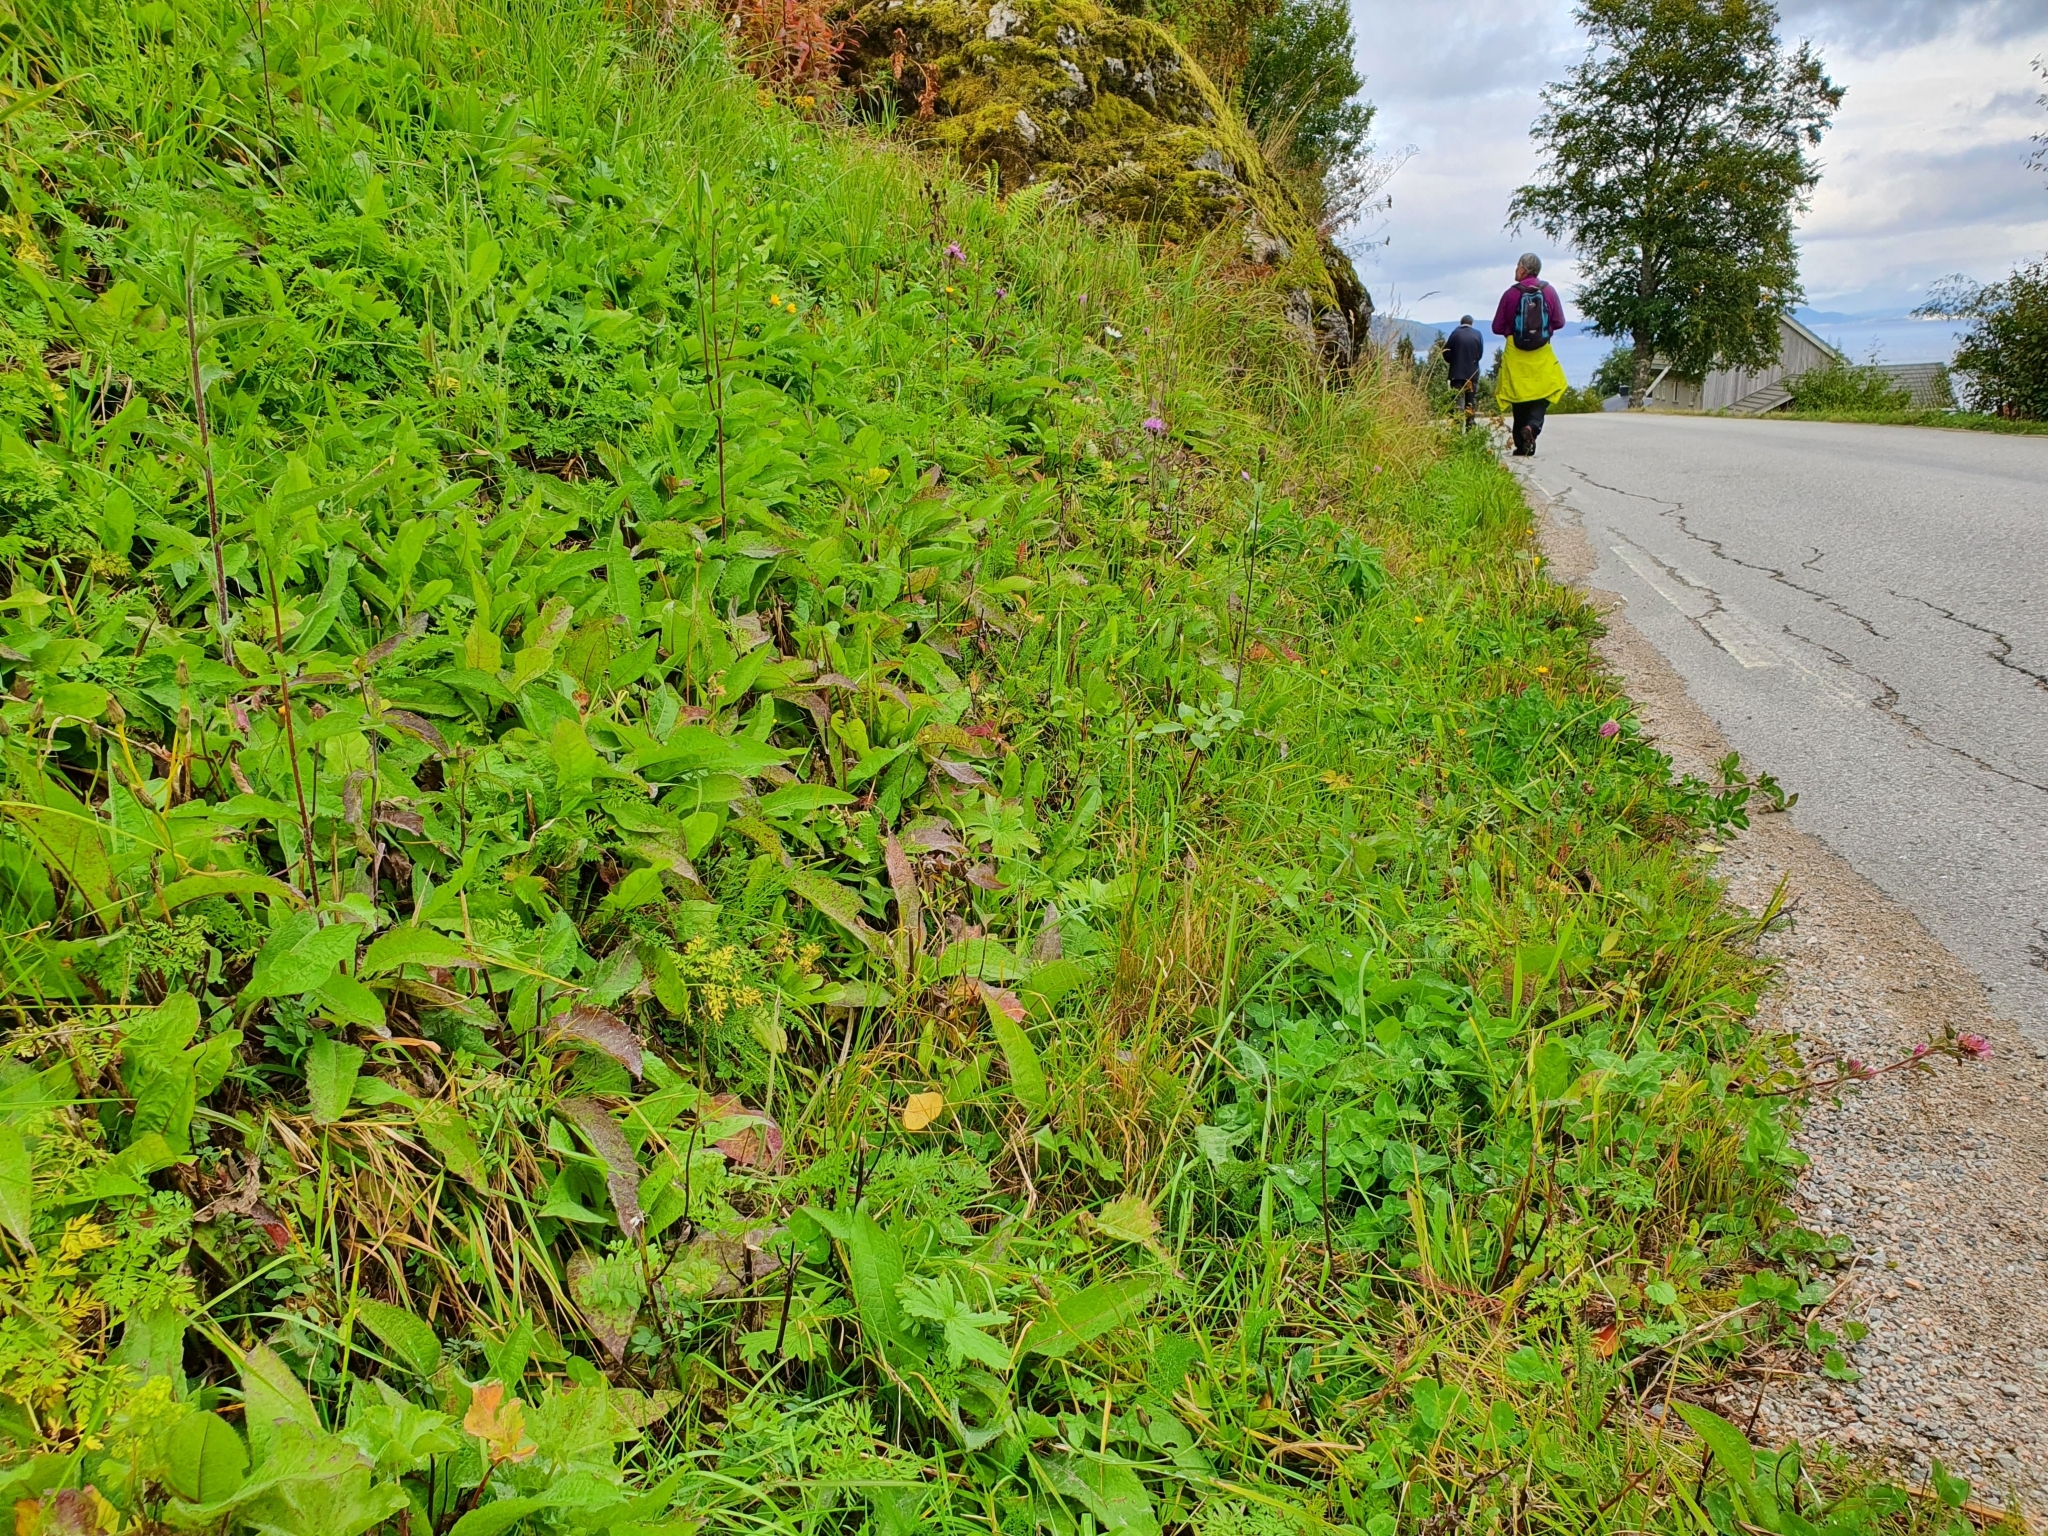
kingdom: Plantae
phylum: Tracheophyta
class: Magnoliopsida
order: Asterales
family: Asteraceae
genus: Centaurea
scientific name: Centaurea phrygia
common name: Wig knapweed
